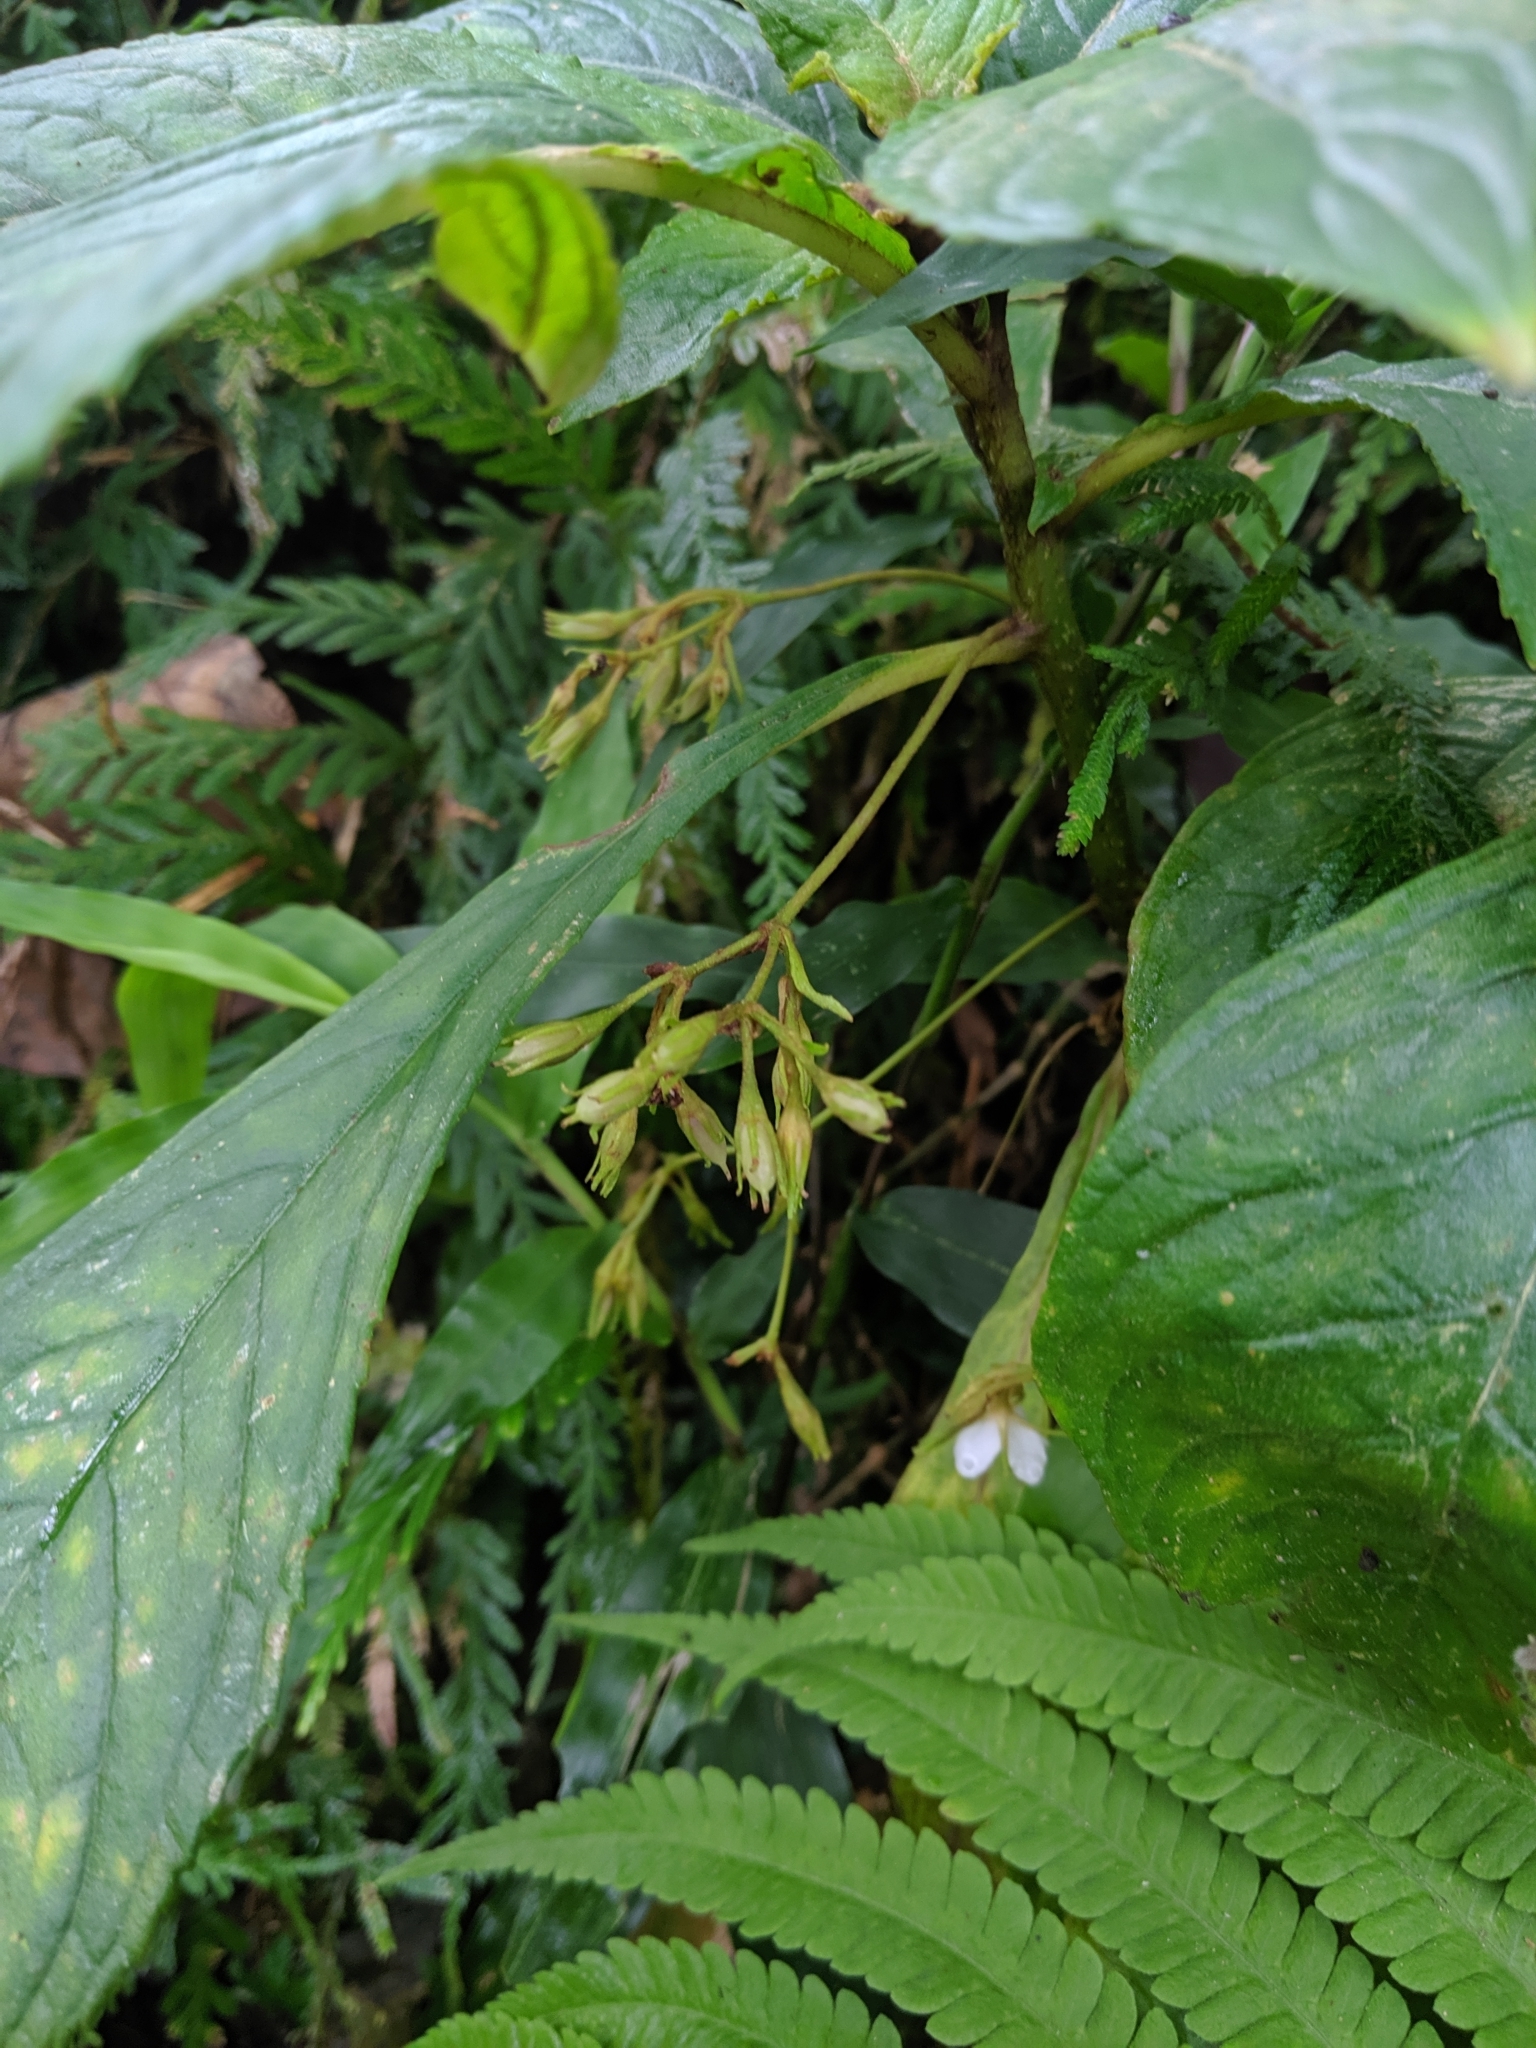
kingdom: Plantae
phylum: Tracheophyta
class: Magnoliopsida
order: Lamiales
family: Gesneriaceae
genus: Rhynchotechum
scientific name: Rhynchotechum discolor
